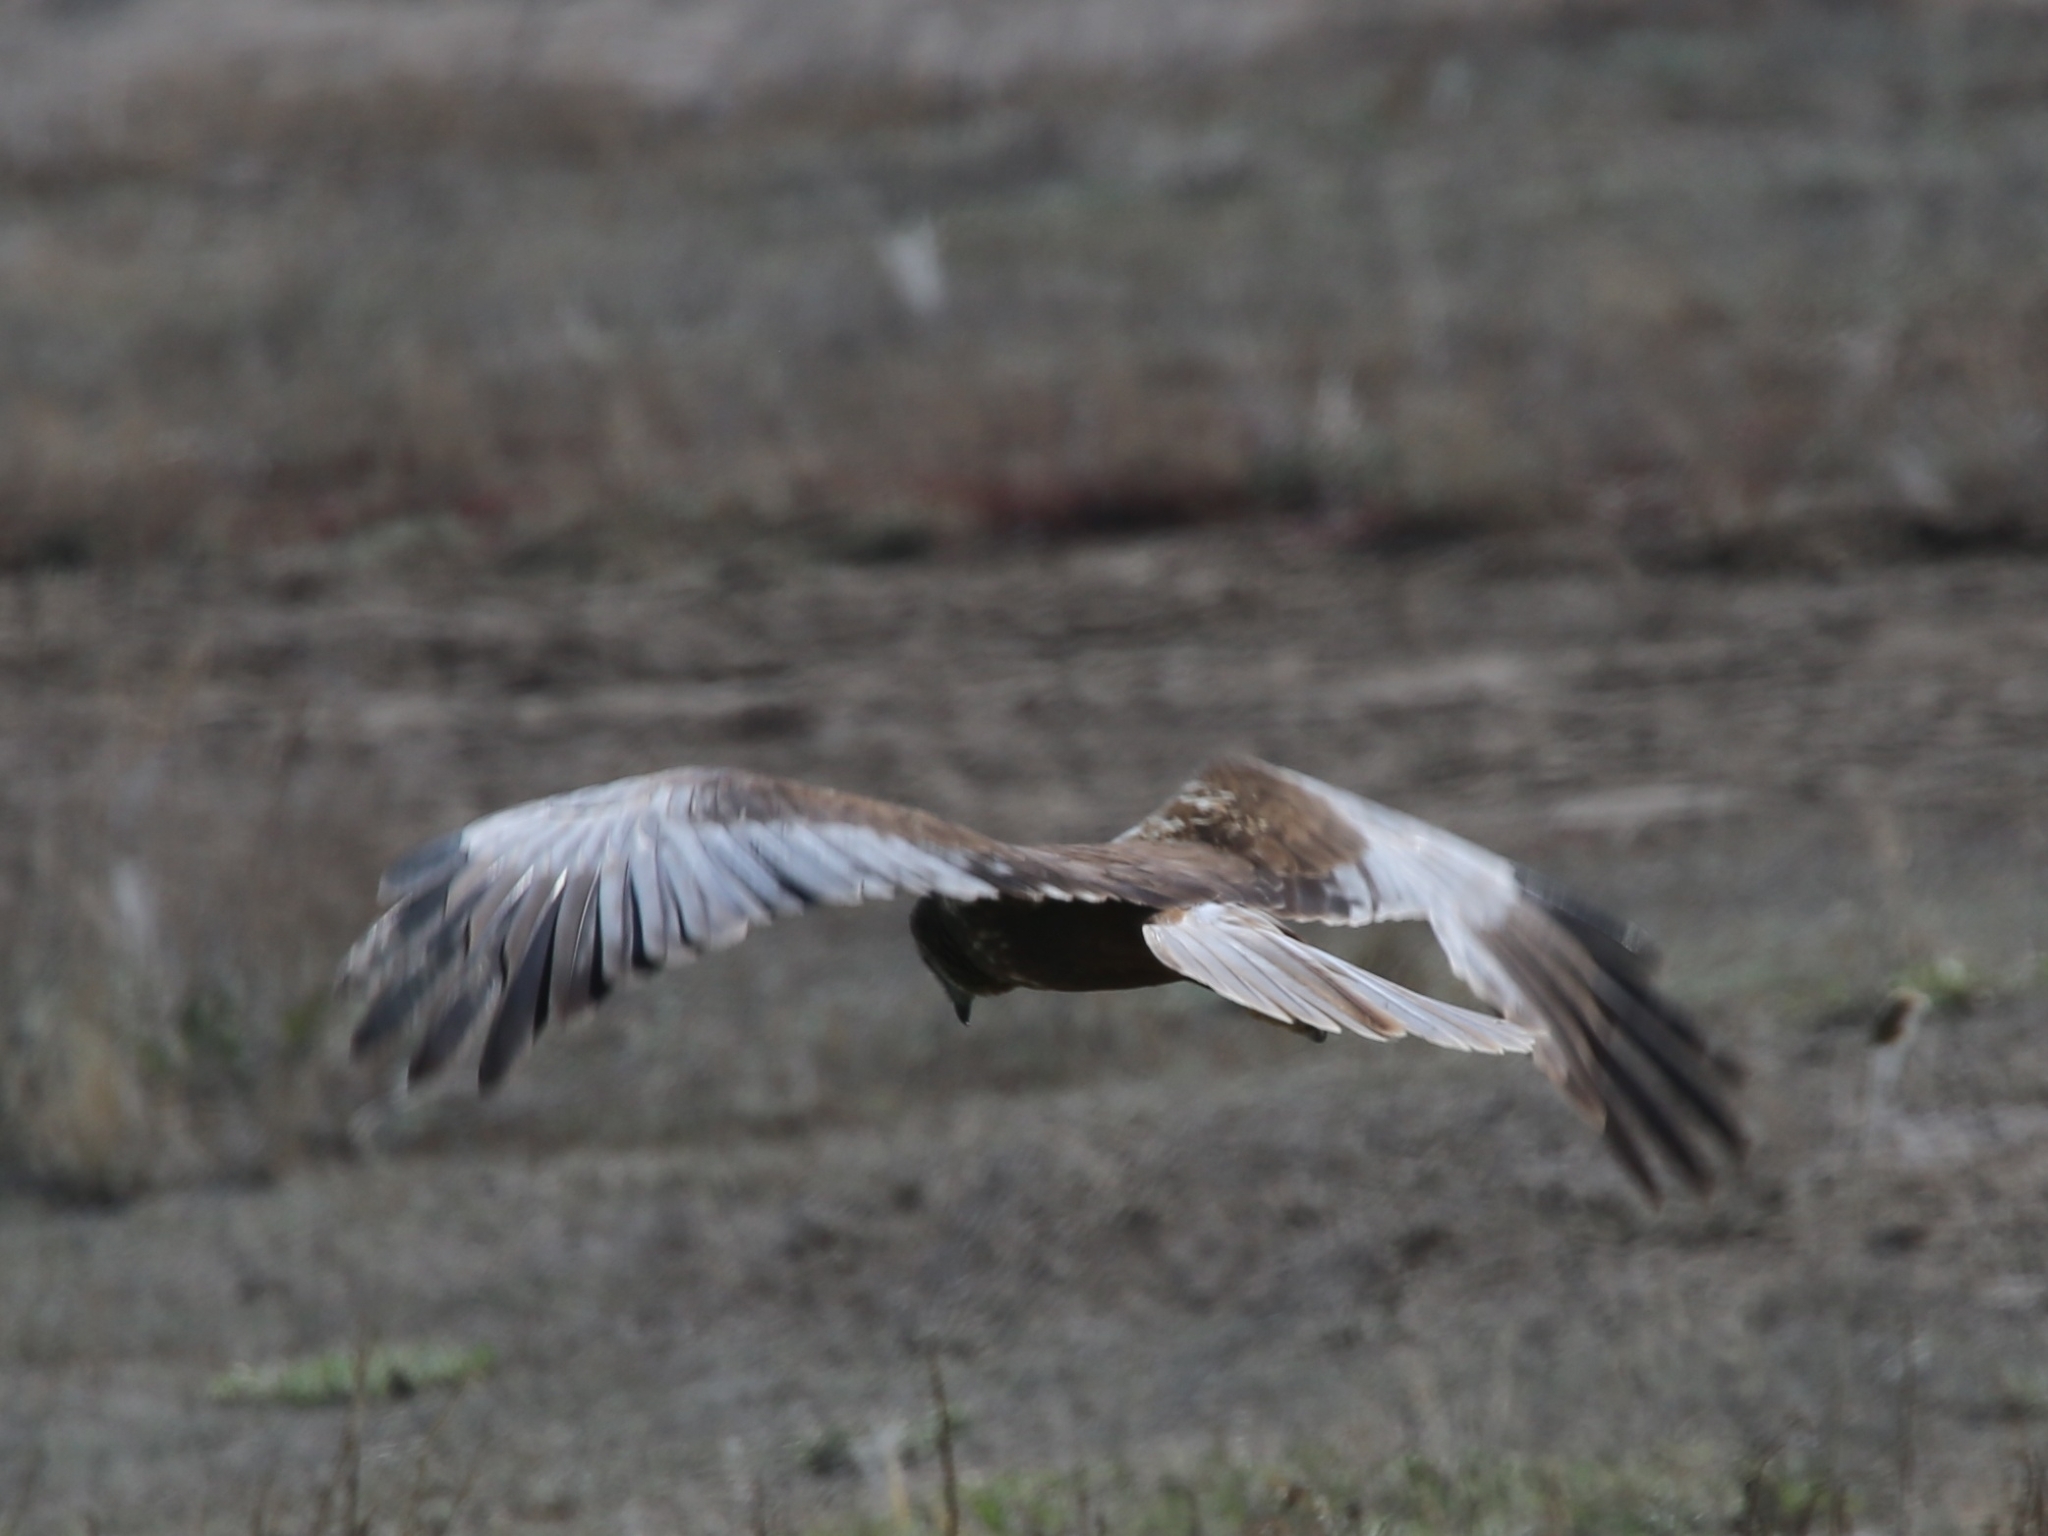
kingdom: Animalia
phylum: Chordata
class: Aves
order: Accipitriformes
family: Accipitridae
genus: Circus
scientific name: Circus aeruginosus
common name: Western marsh harrier
